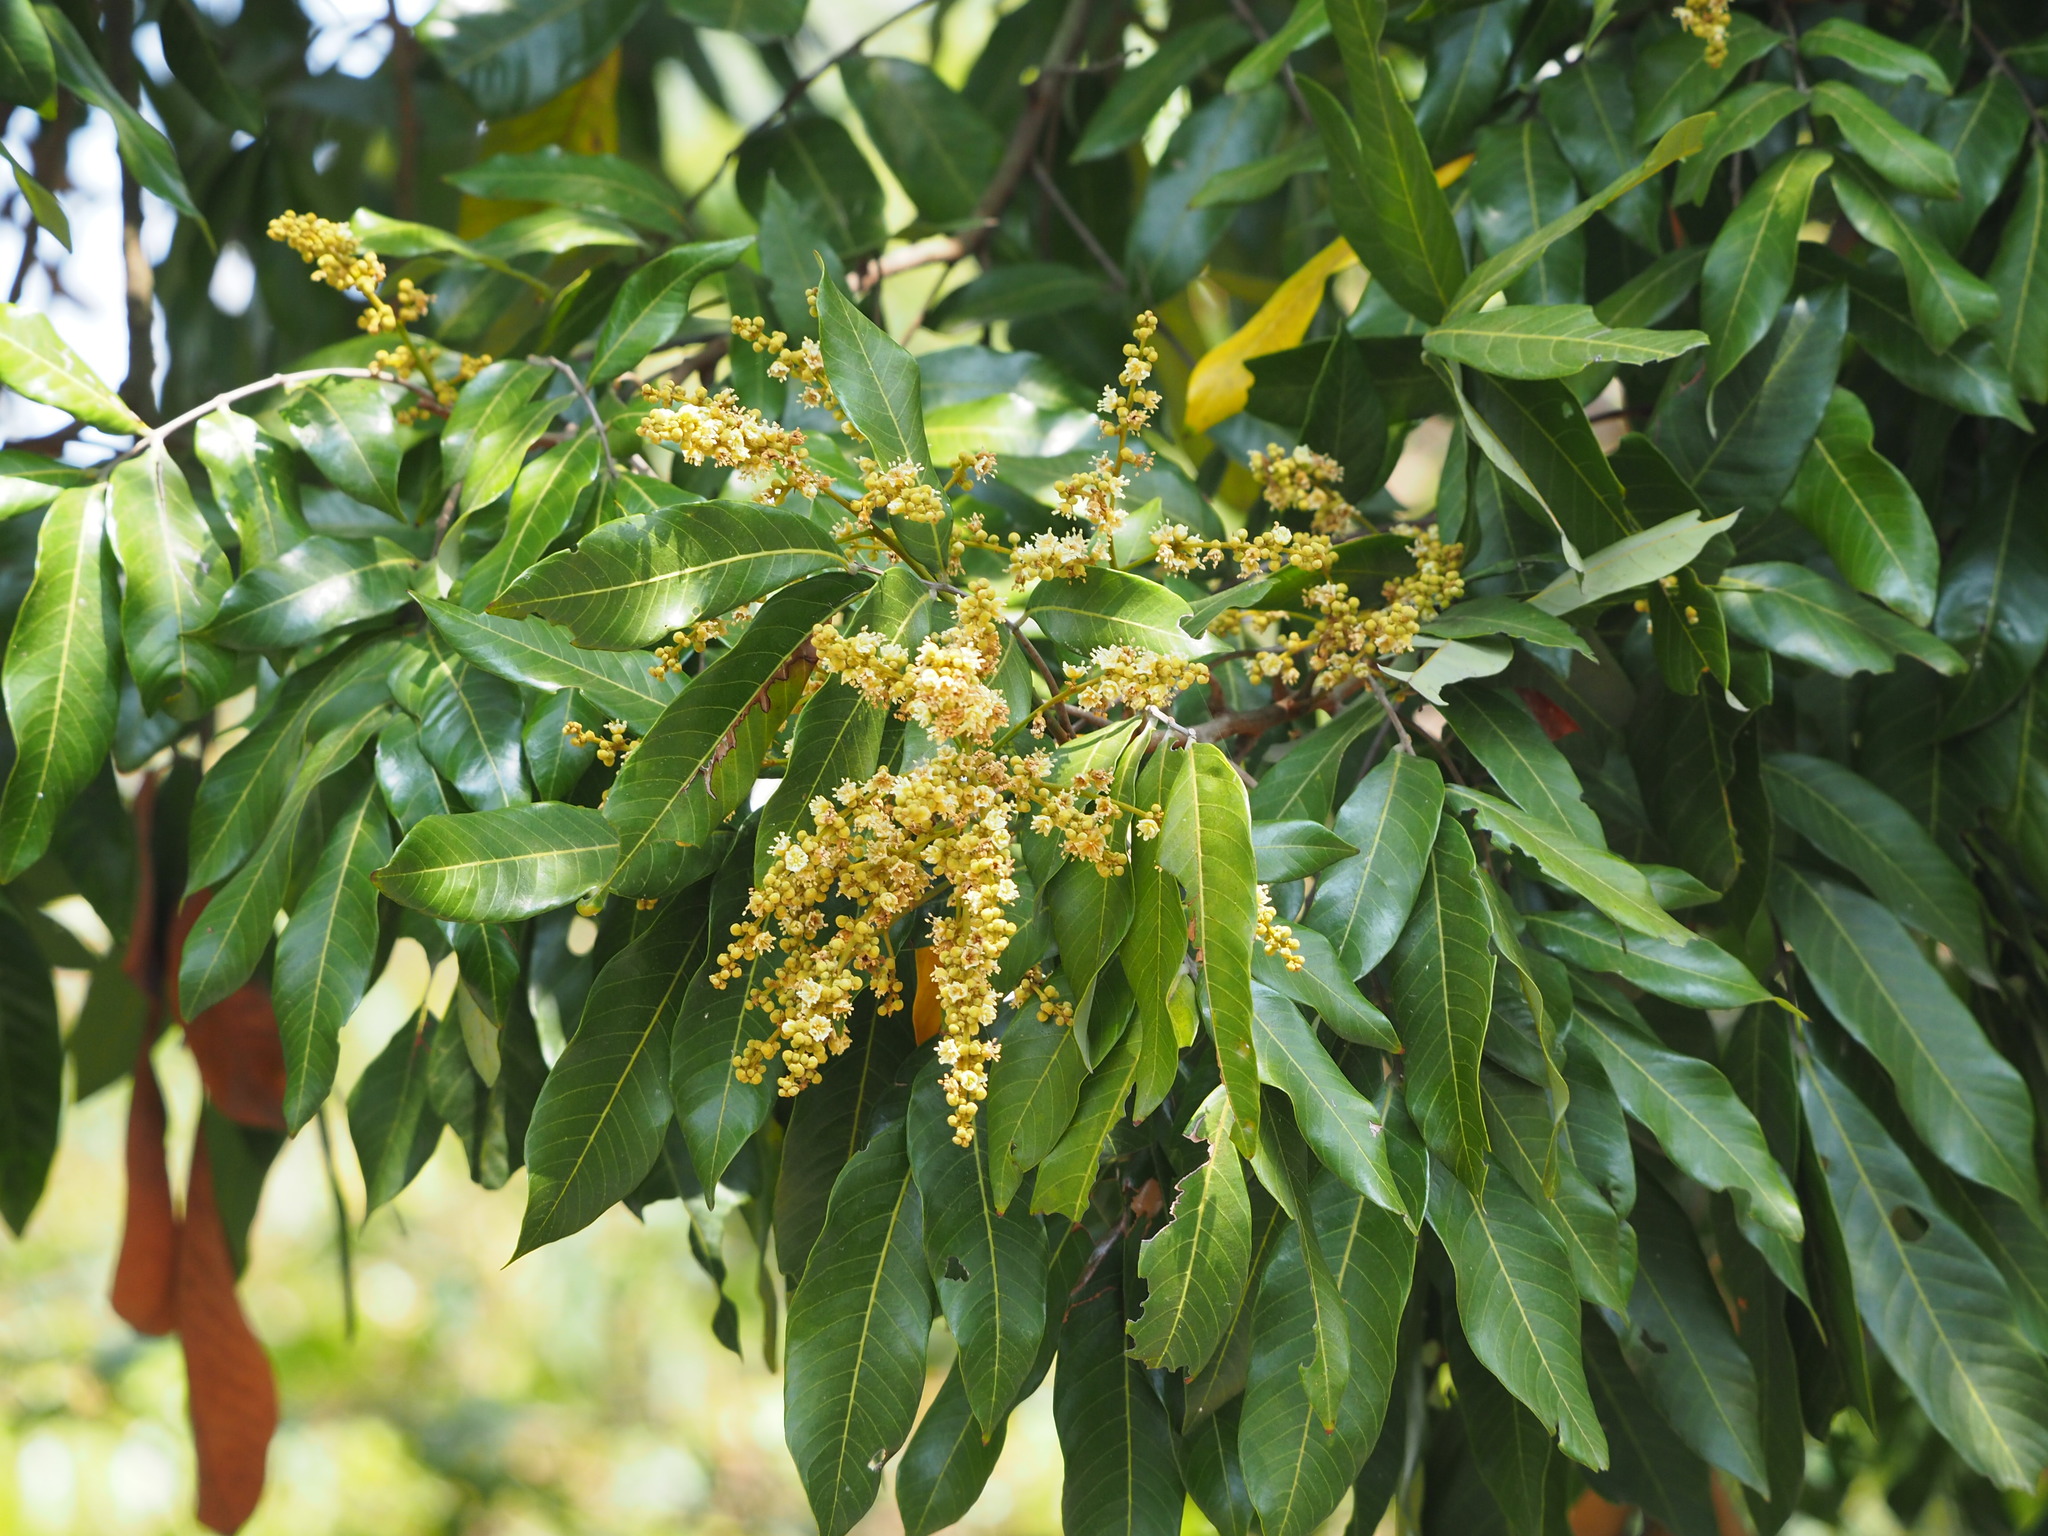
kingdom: Plantae
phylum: Tracheophyta
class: Magnoliopsida
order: Sapindales
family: Sapindaceae
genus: Dimocarpus
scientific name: Dimocarpus longan
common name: Longan
